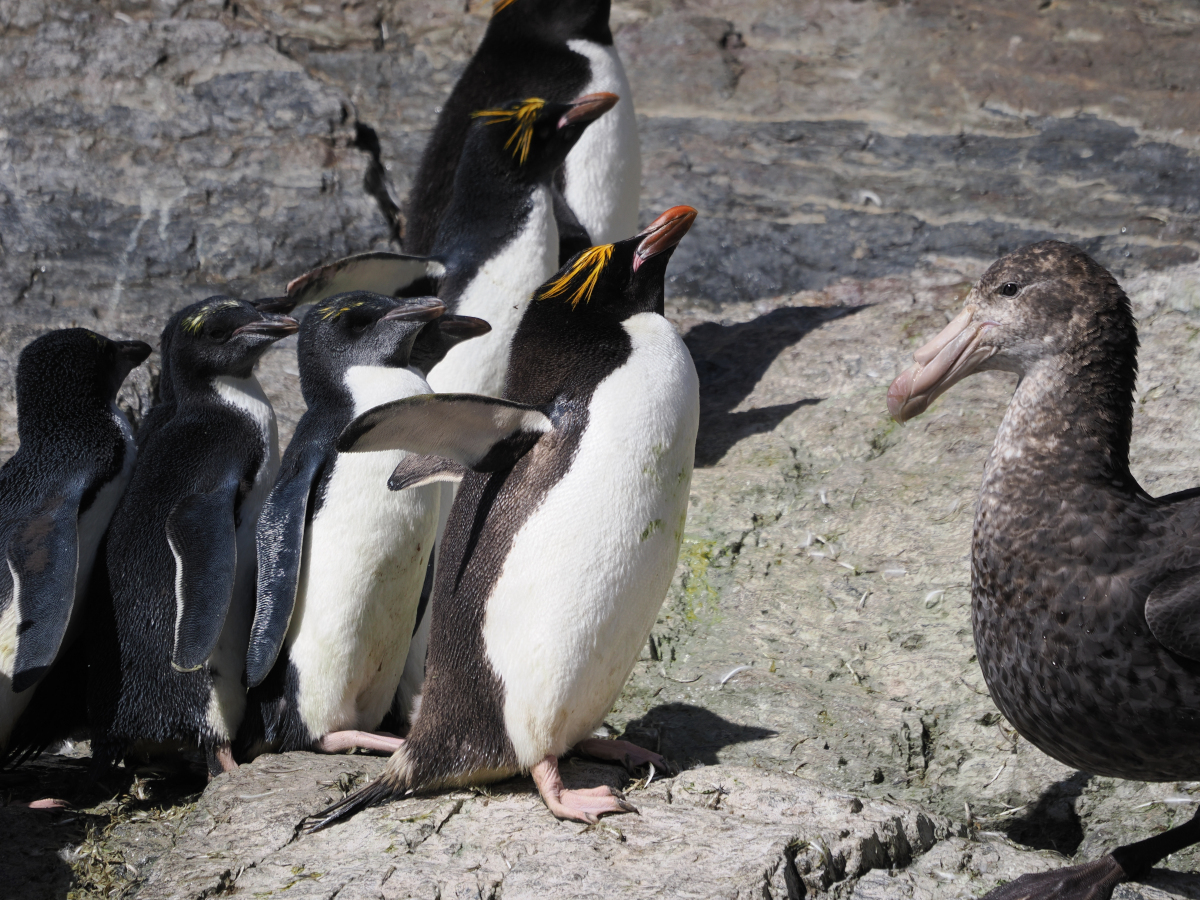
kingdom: Animalia
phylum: Chordata
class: Aves
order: Sphenisciformes
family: Spheniscidae
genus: Eudyptes
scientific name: Eudyptes chrysolophus
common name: Macaroni penguin
